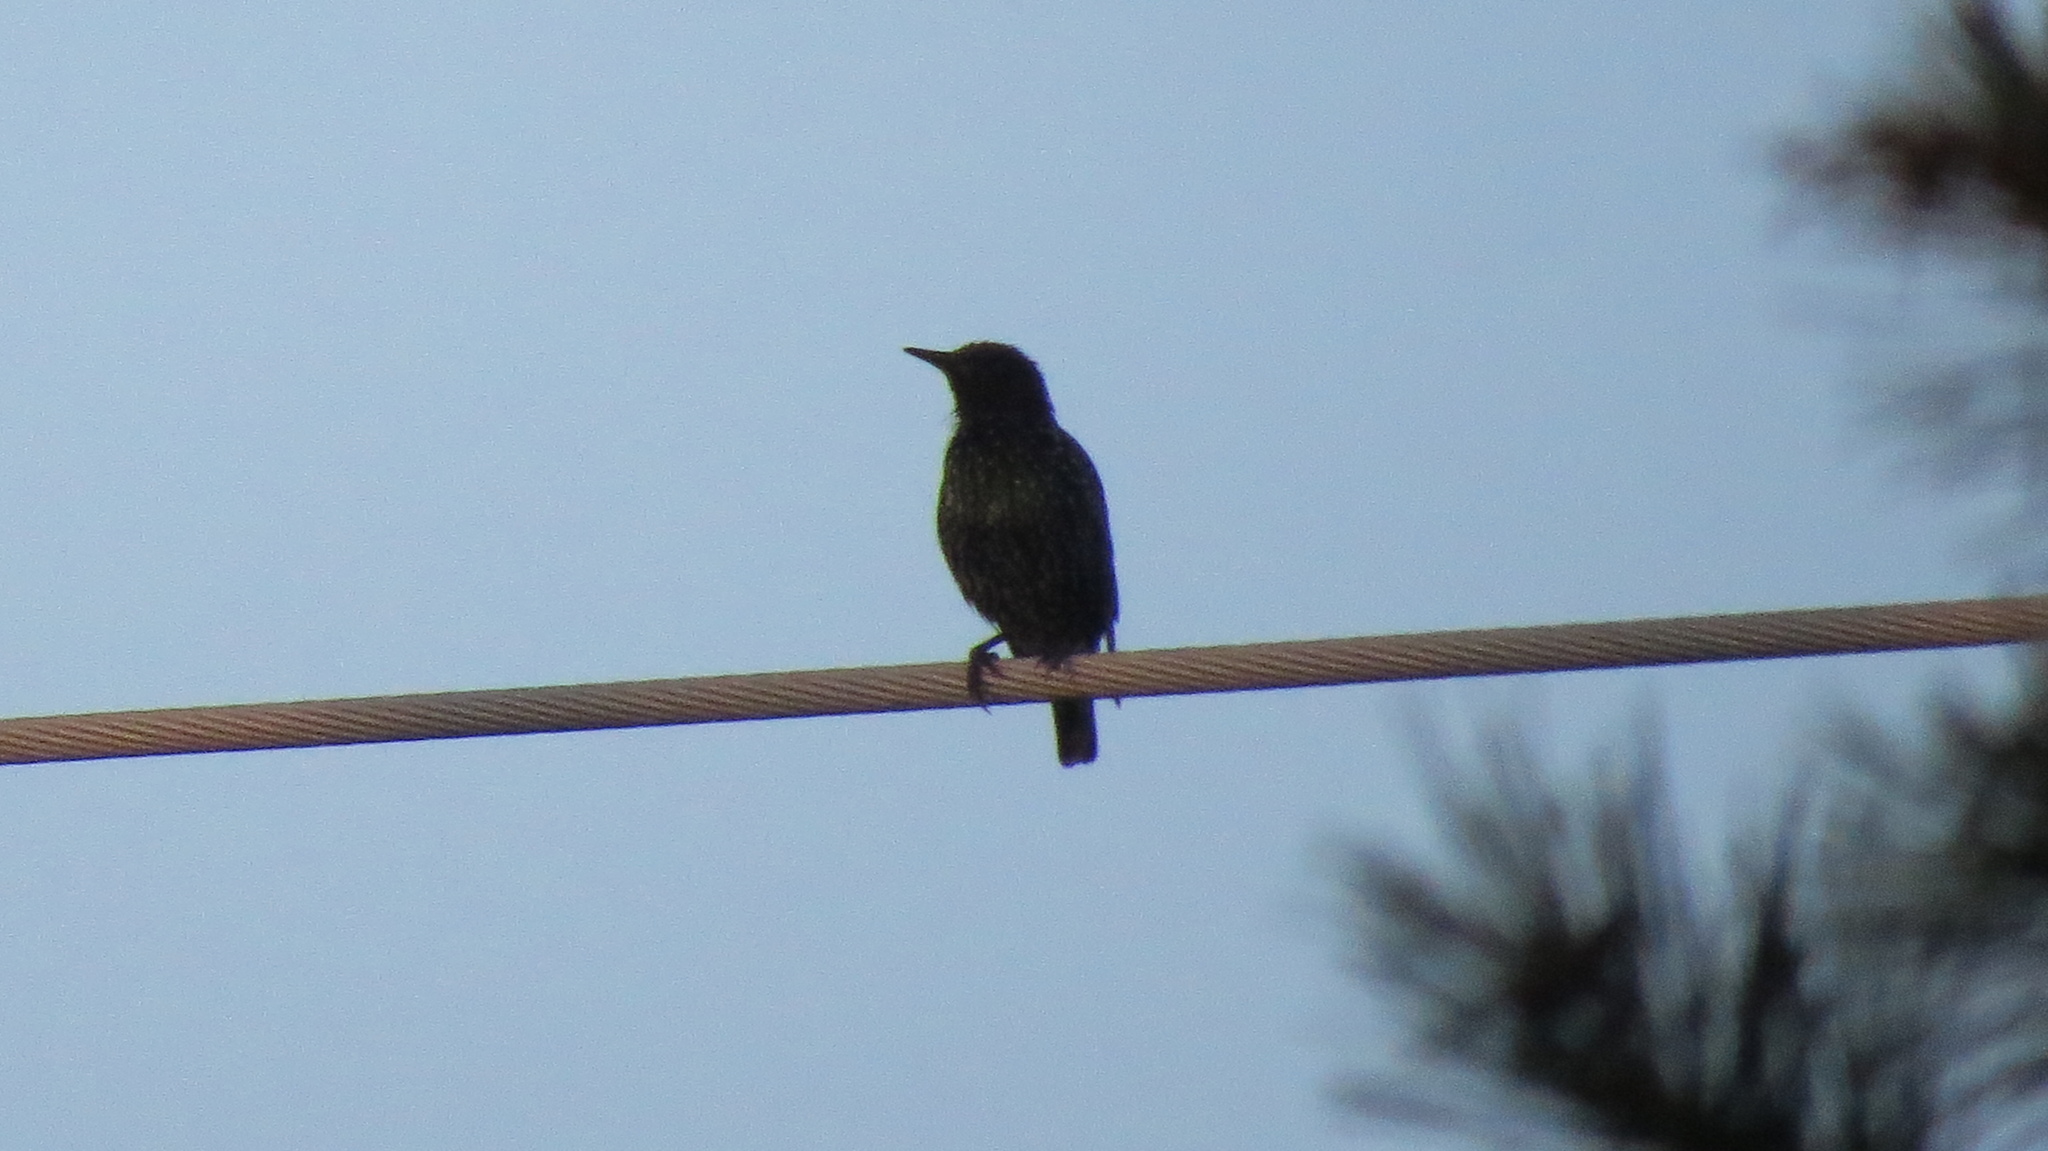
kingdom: Animalia
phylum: Chordata
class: Aves
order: Passeriformes
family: Sturnidae
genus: Sturnus
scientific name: Sturnus vulgaris
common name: Common starling
